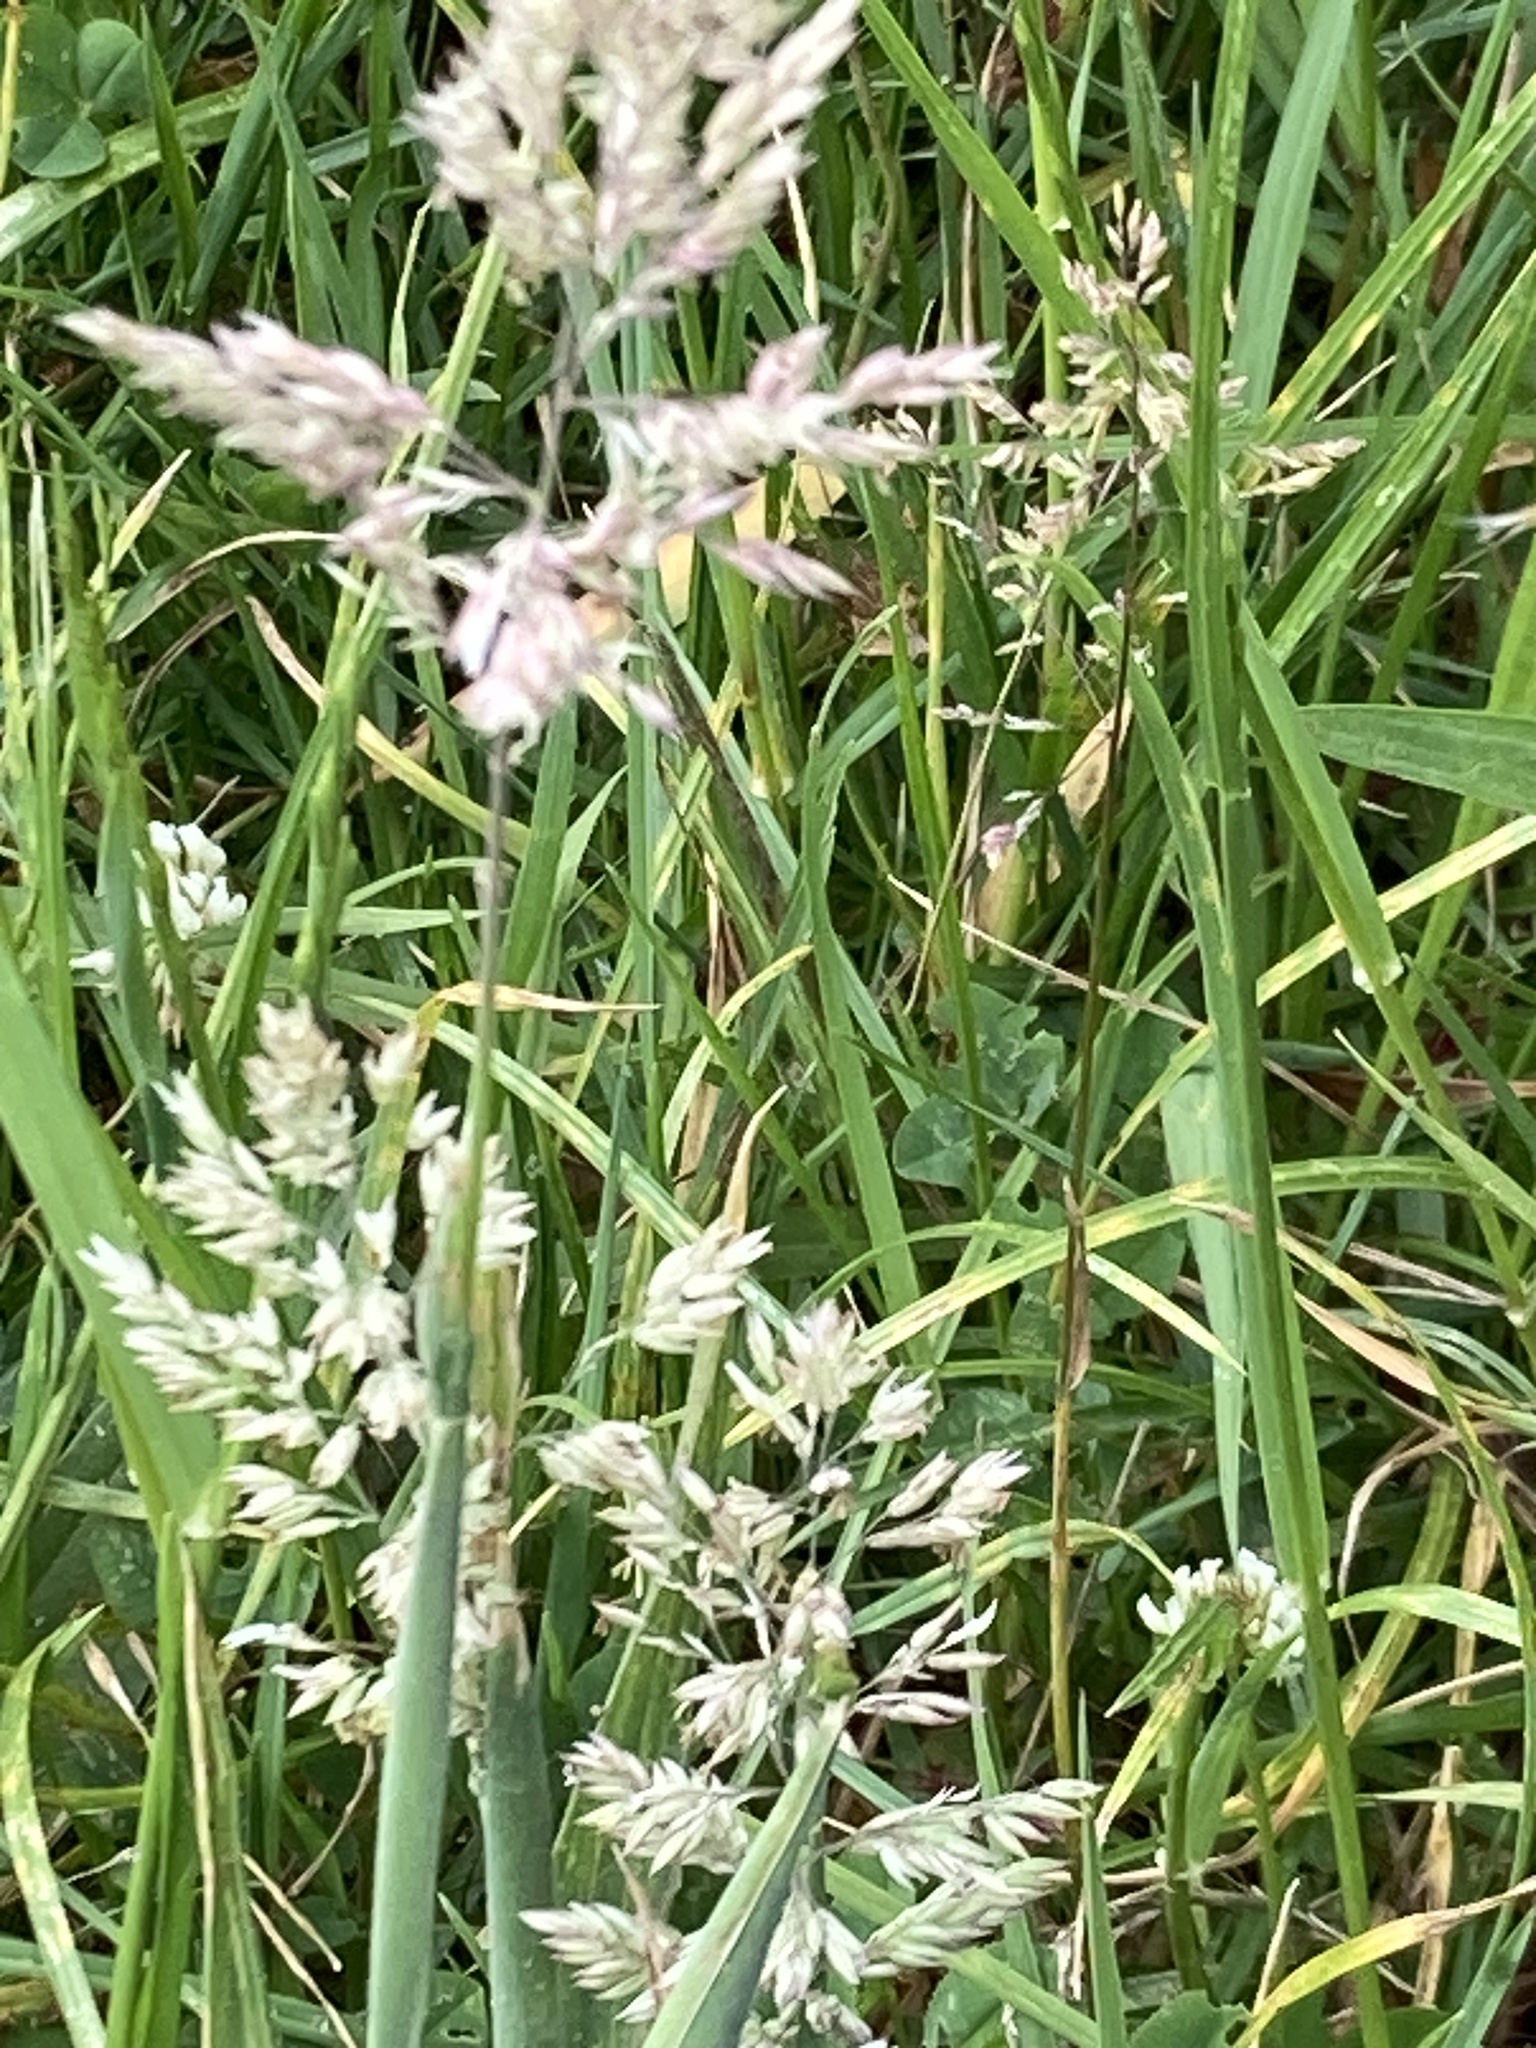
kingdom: Plantae
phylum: Tracheophyta
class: Liliopsida
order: Poales
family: Poaceae
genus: Holcus
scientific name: Holcus lanatus
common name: Yorkshire-fog
